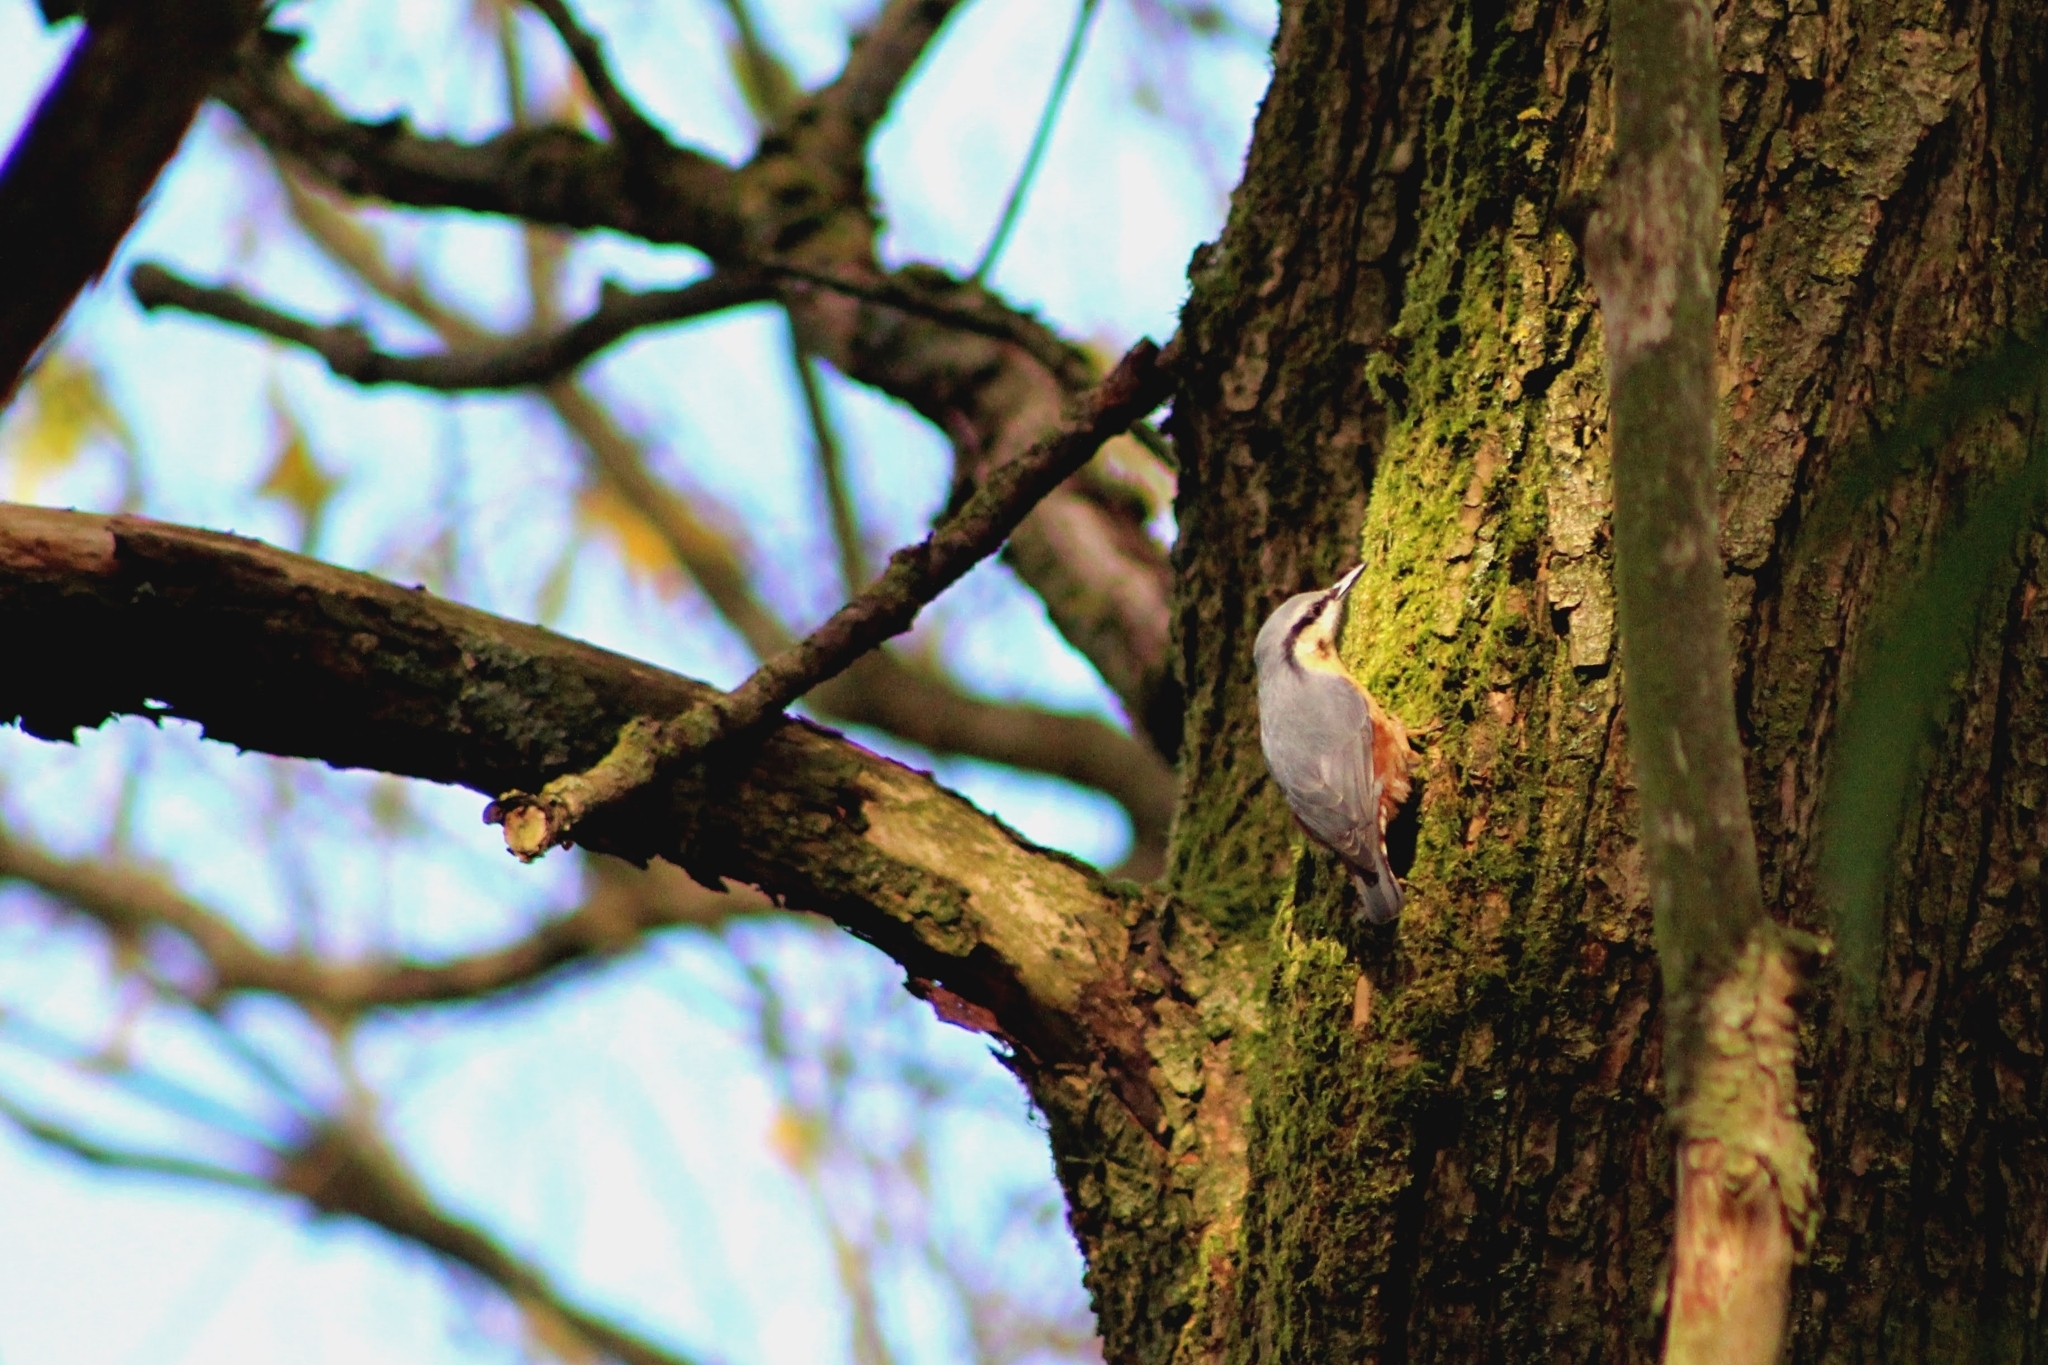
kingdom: Animalia
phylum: Chordata
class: Aves
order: Passeriformes
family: Sittidae
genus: Sitta
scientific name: Sitta europaea
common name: Eurasian nuthatch
